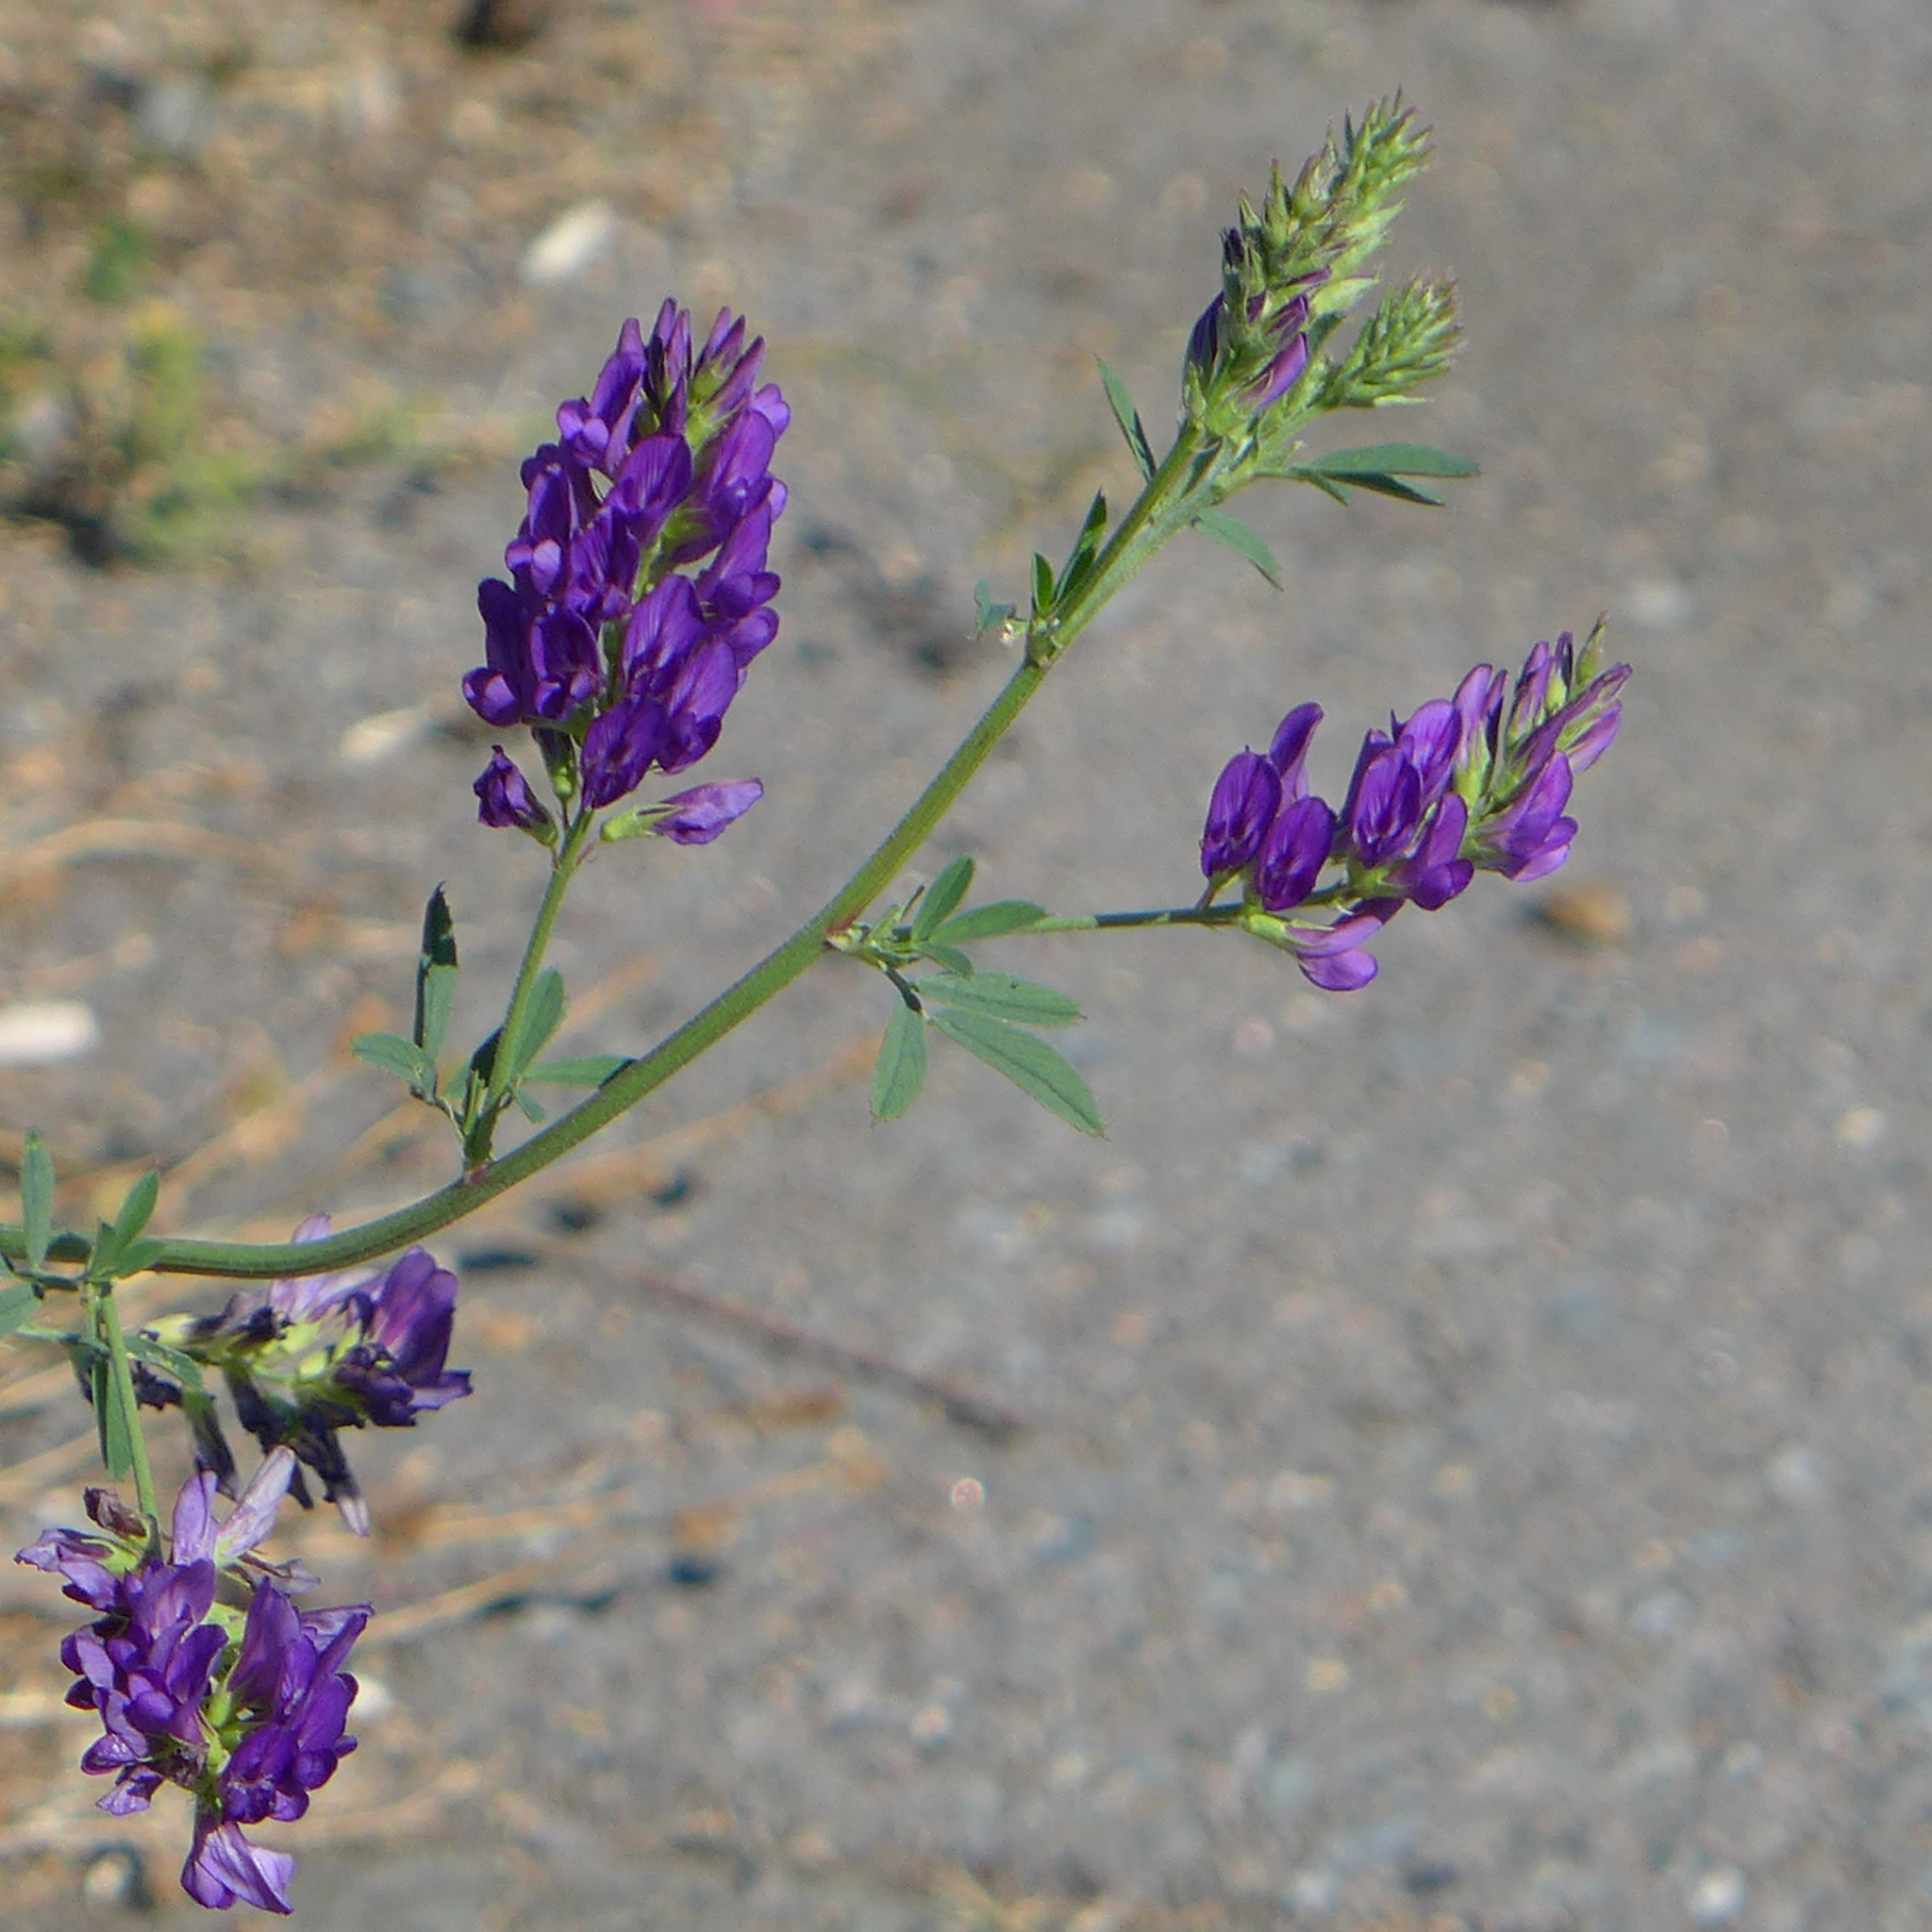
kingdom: Plantae
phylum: Tracheophyta
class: Magnoliopsida
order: Fabales
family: Fabaceae
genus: Medicago
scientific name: Medicago sativa
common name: Alfalfa
